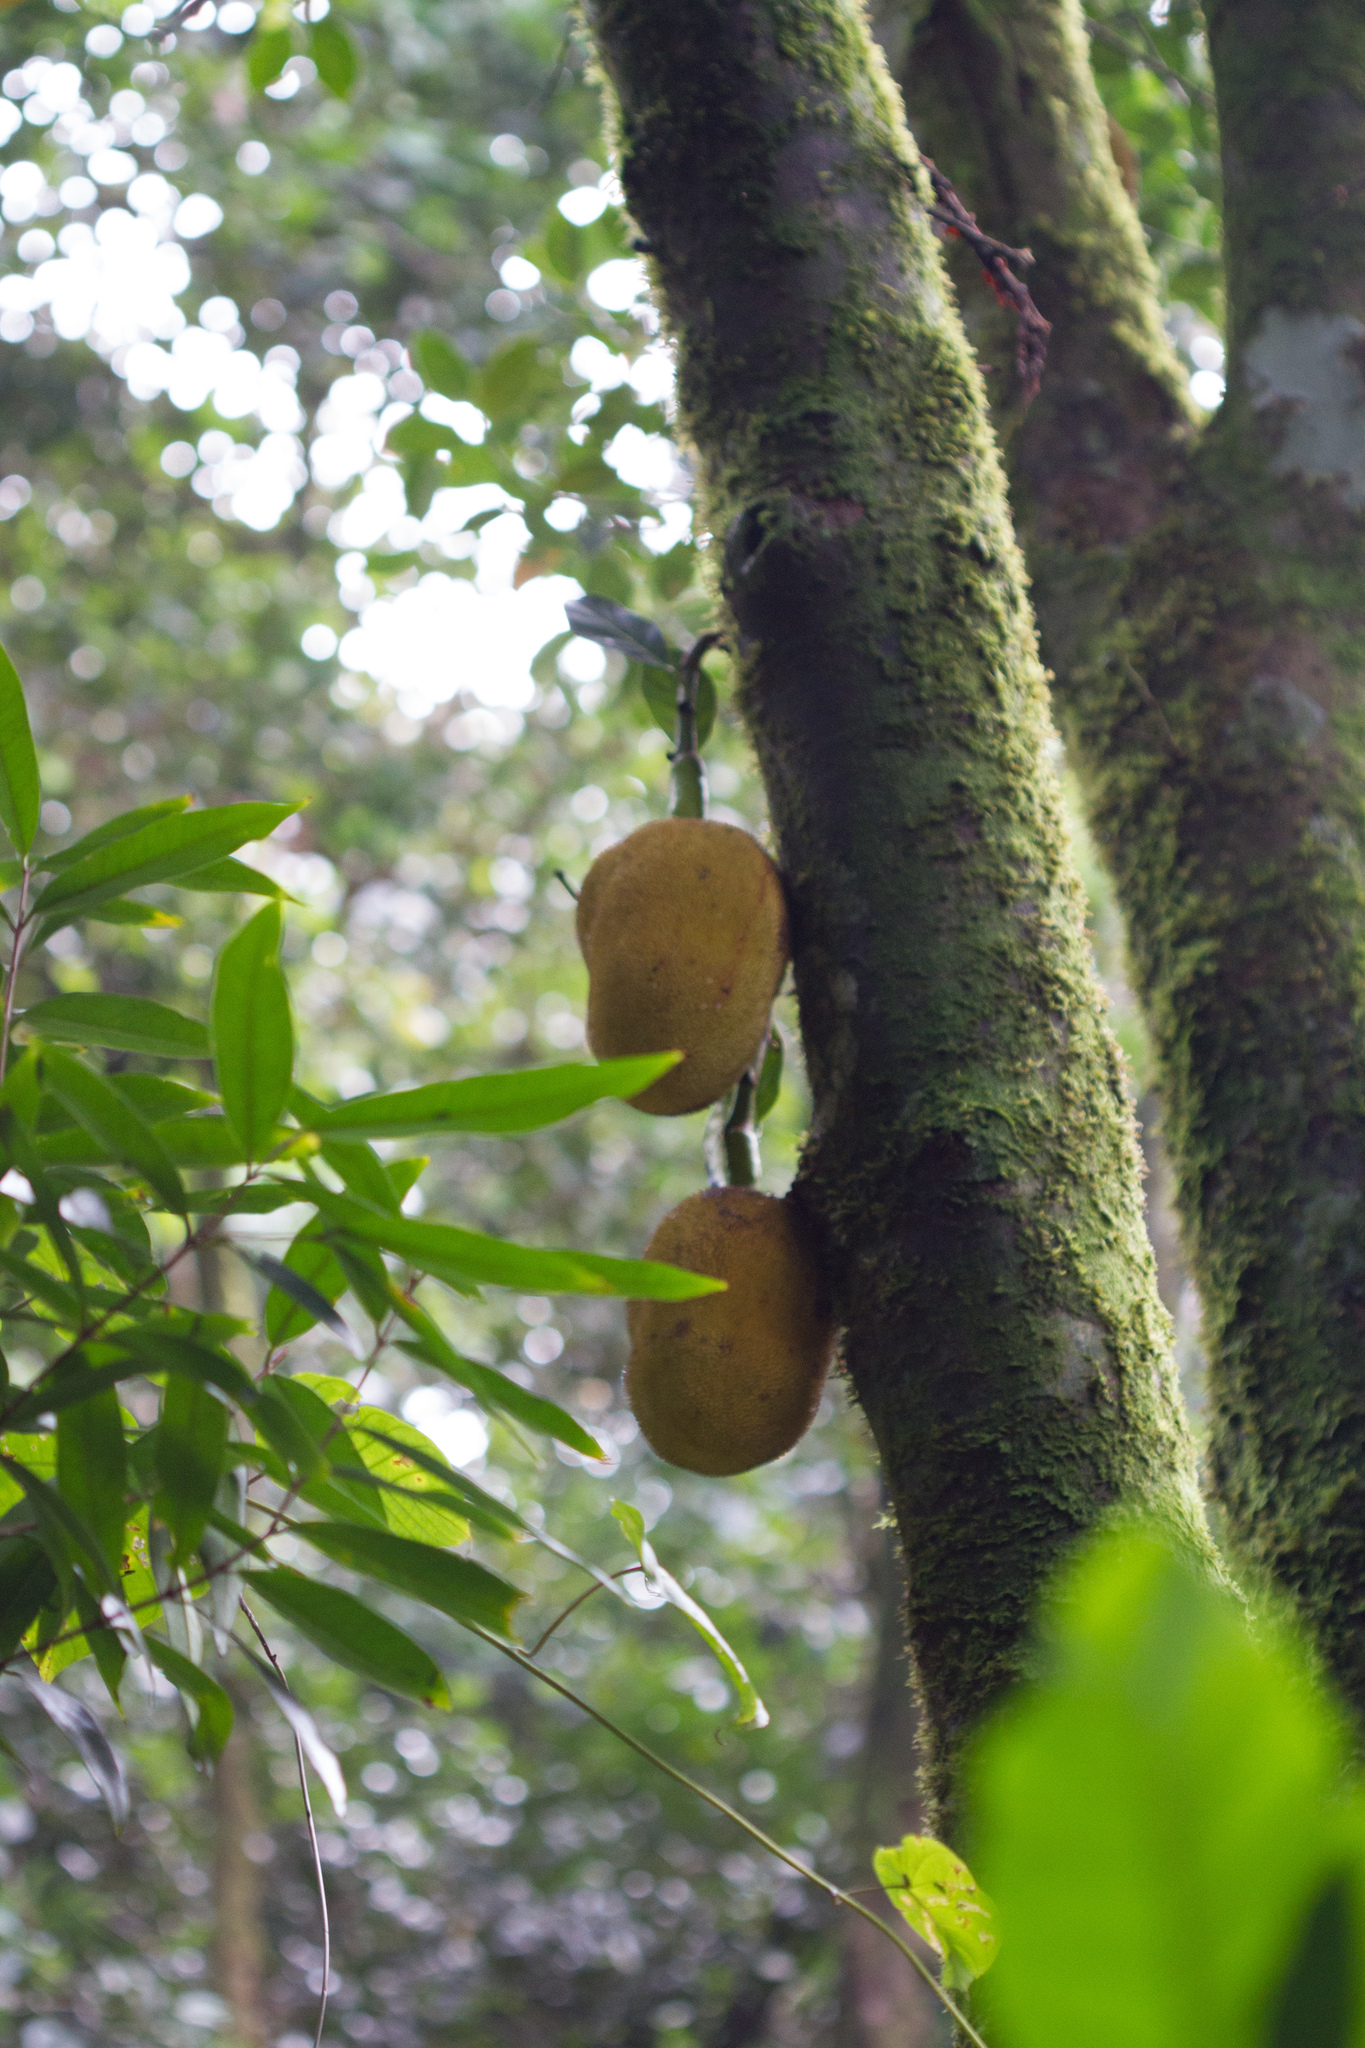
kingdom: Plantae
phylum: Tracheophyta
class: Magnoliopsida
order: Rosales
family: Moraceae
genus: Artocarpus
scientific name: Artocarpus heterophyllus
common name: Jackfruit
